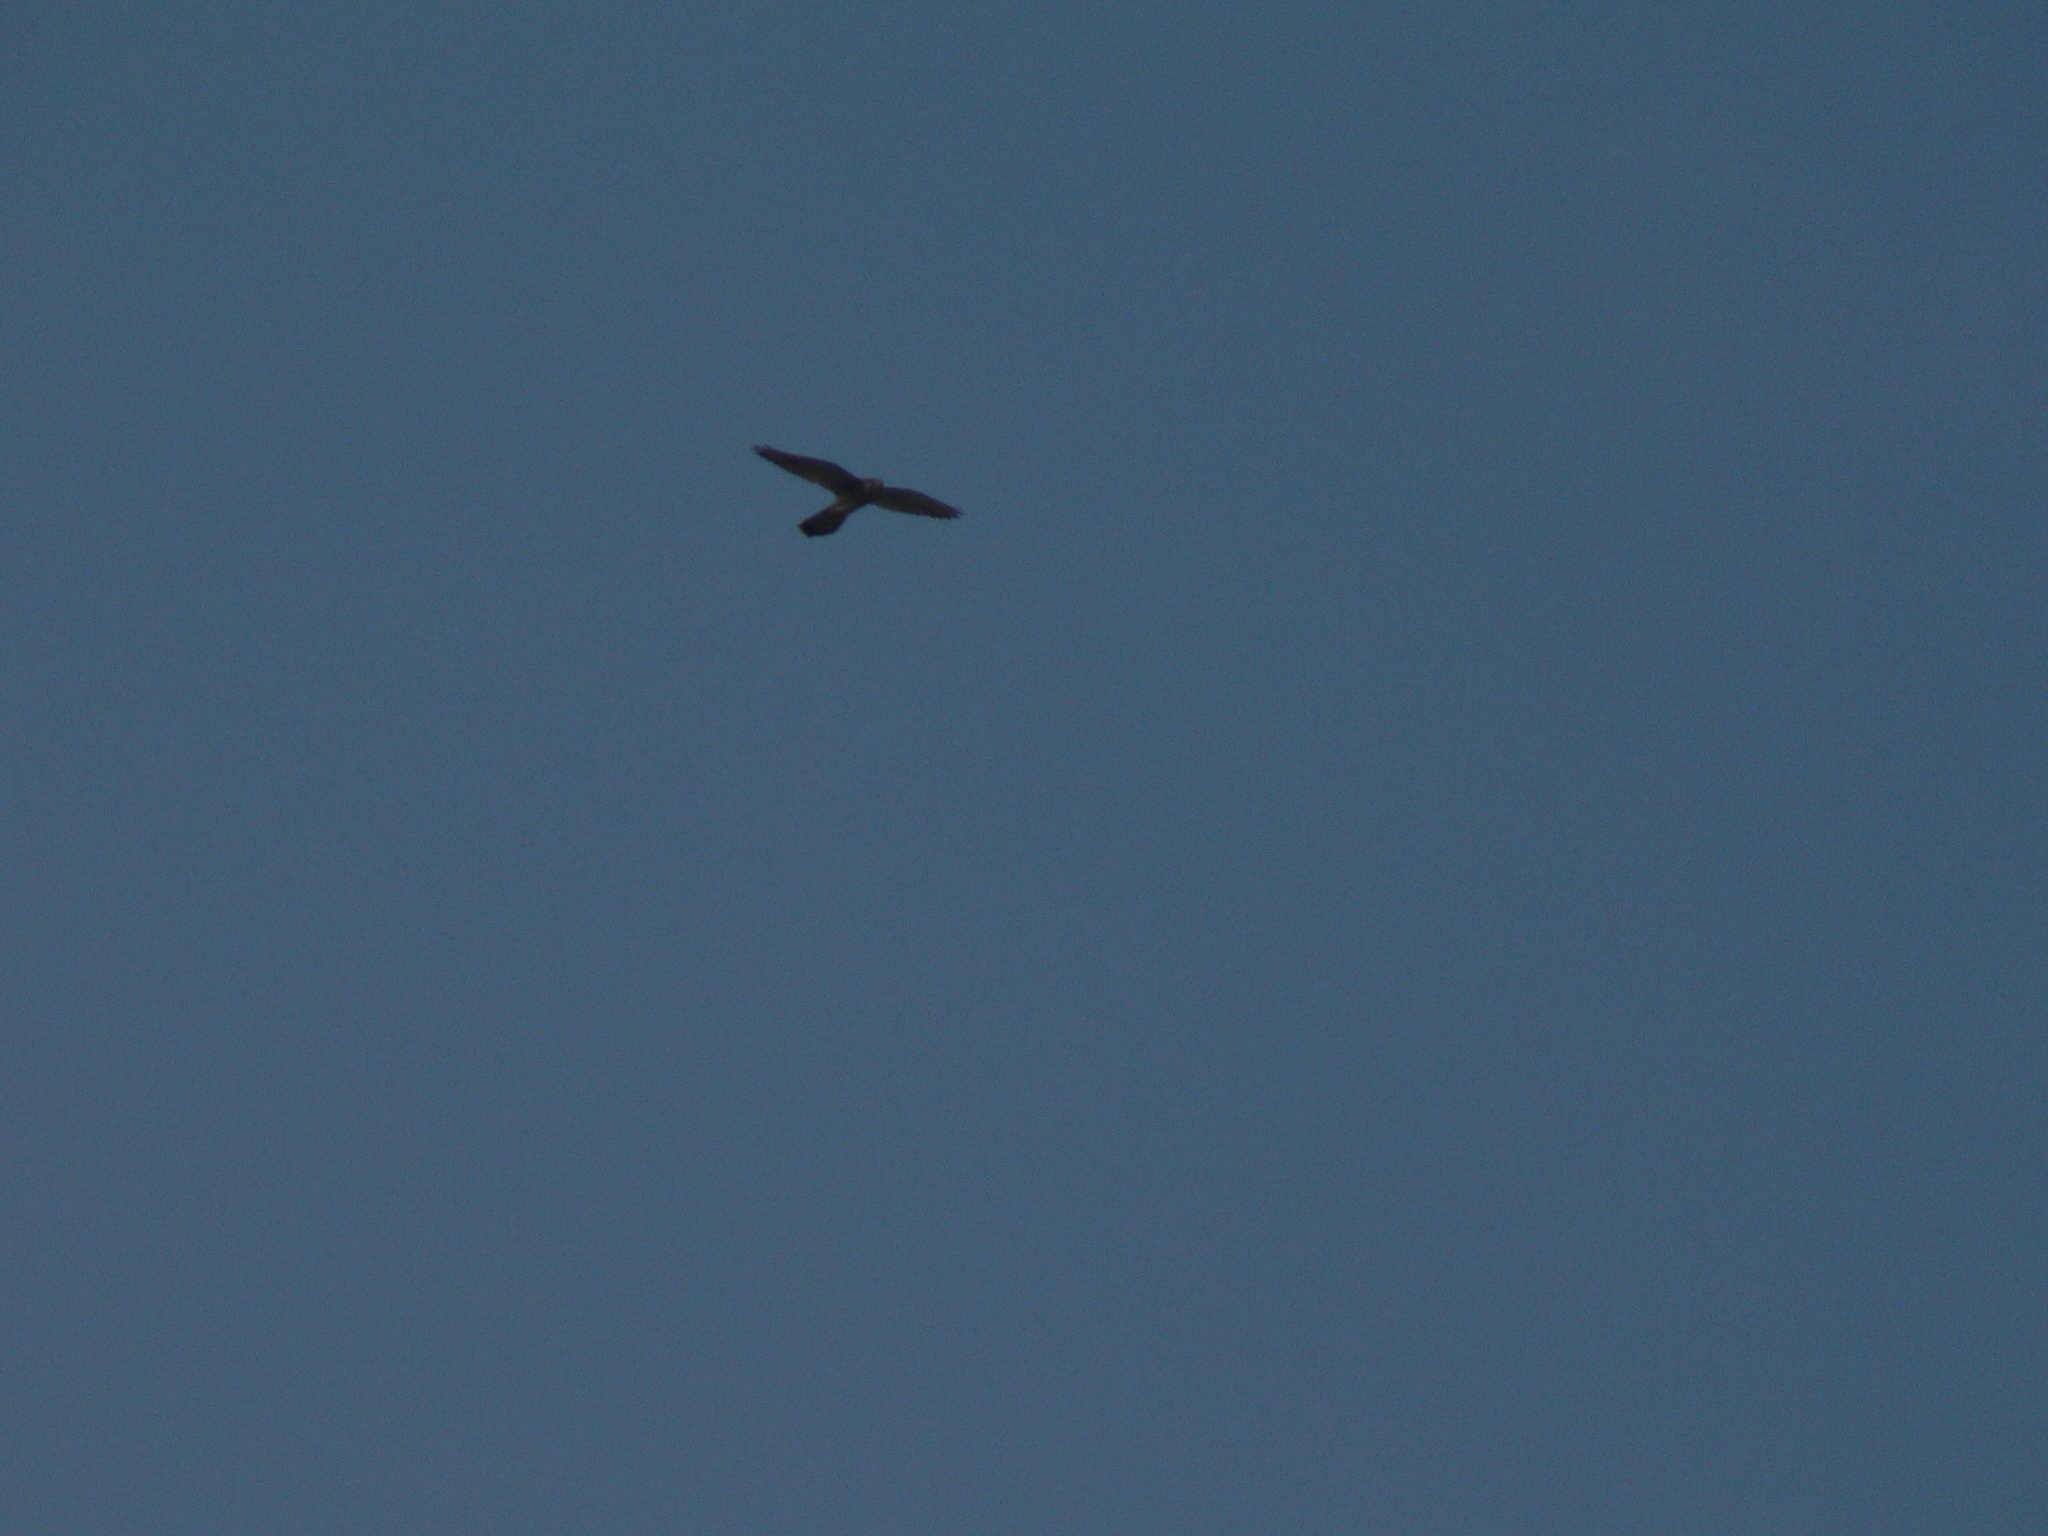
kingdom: Animalia
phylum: Chordata
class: Aves
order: Falconiformes
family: Falconidae
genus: Falco
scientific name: Falco tinnunculus
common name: Common kestrel
